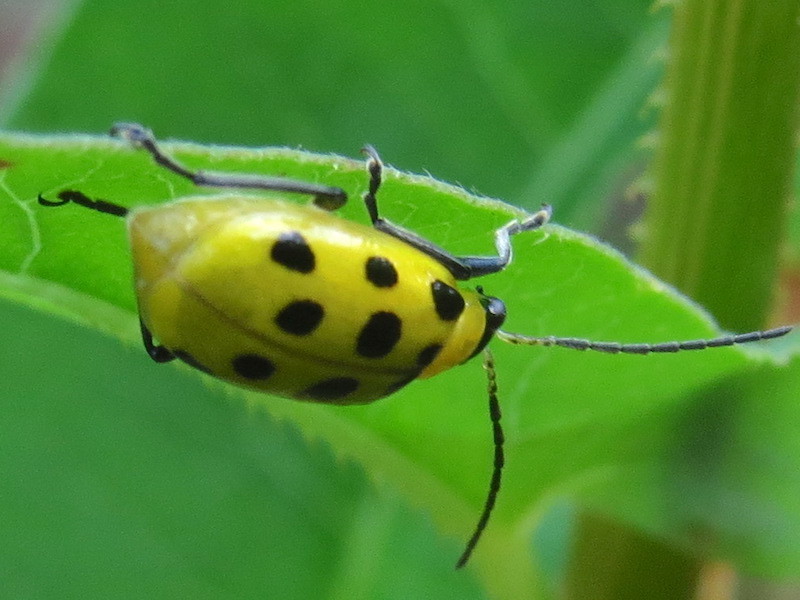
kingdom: Animalia
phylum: Arthropoda
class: Insecta
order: Coleoptera
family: Chrysomelidae
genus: Diabrotica
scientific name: Diabrotica undecimpunctata
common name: Spotted cucumber beetle
